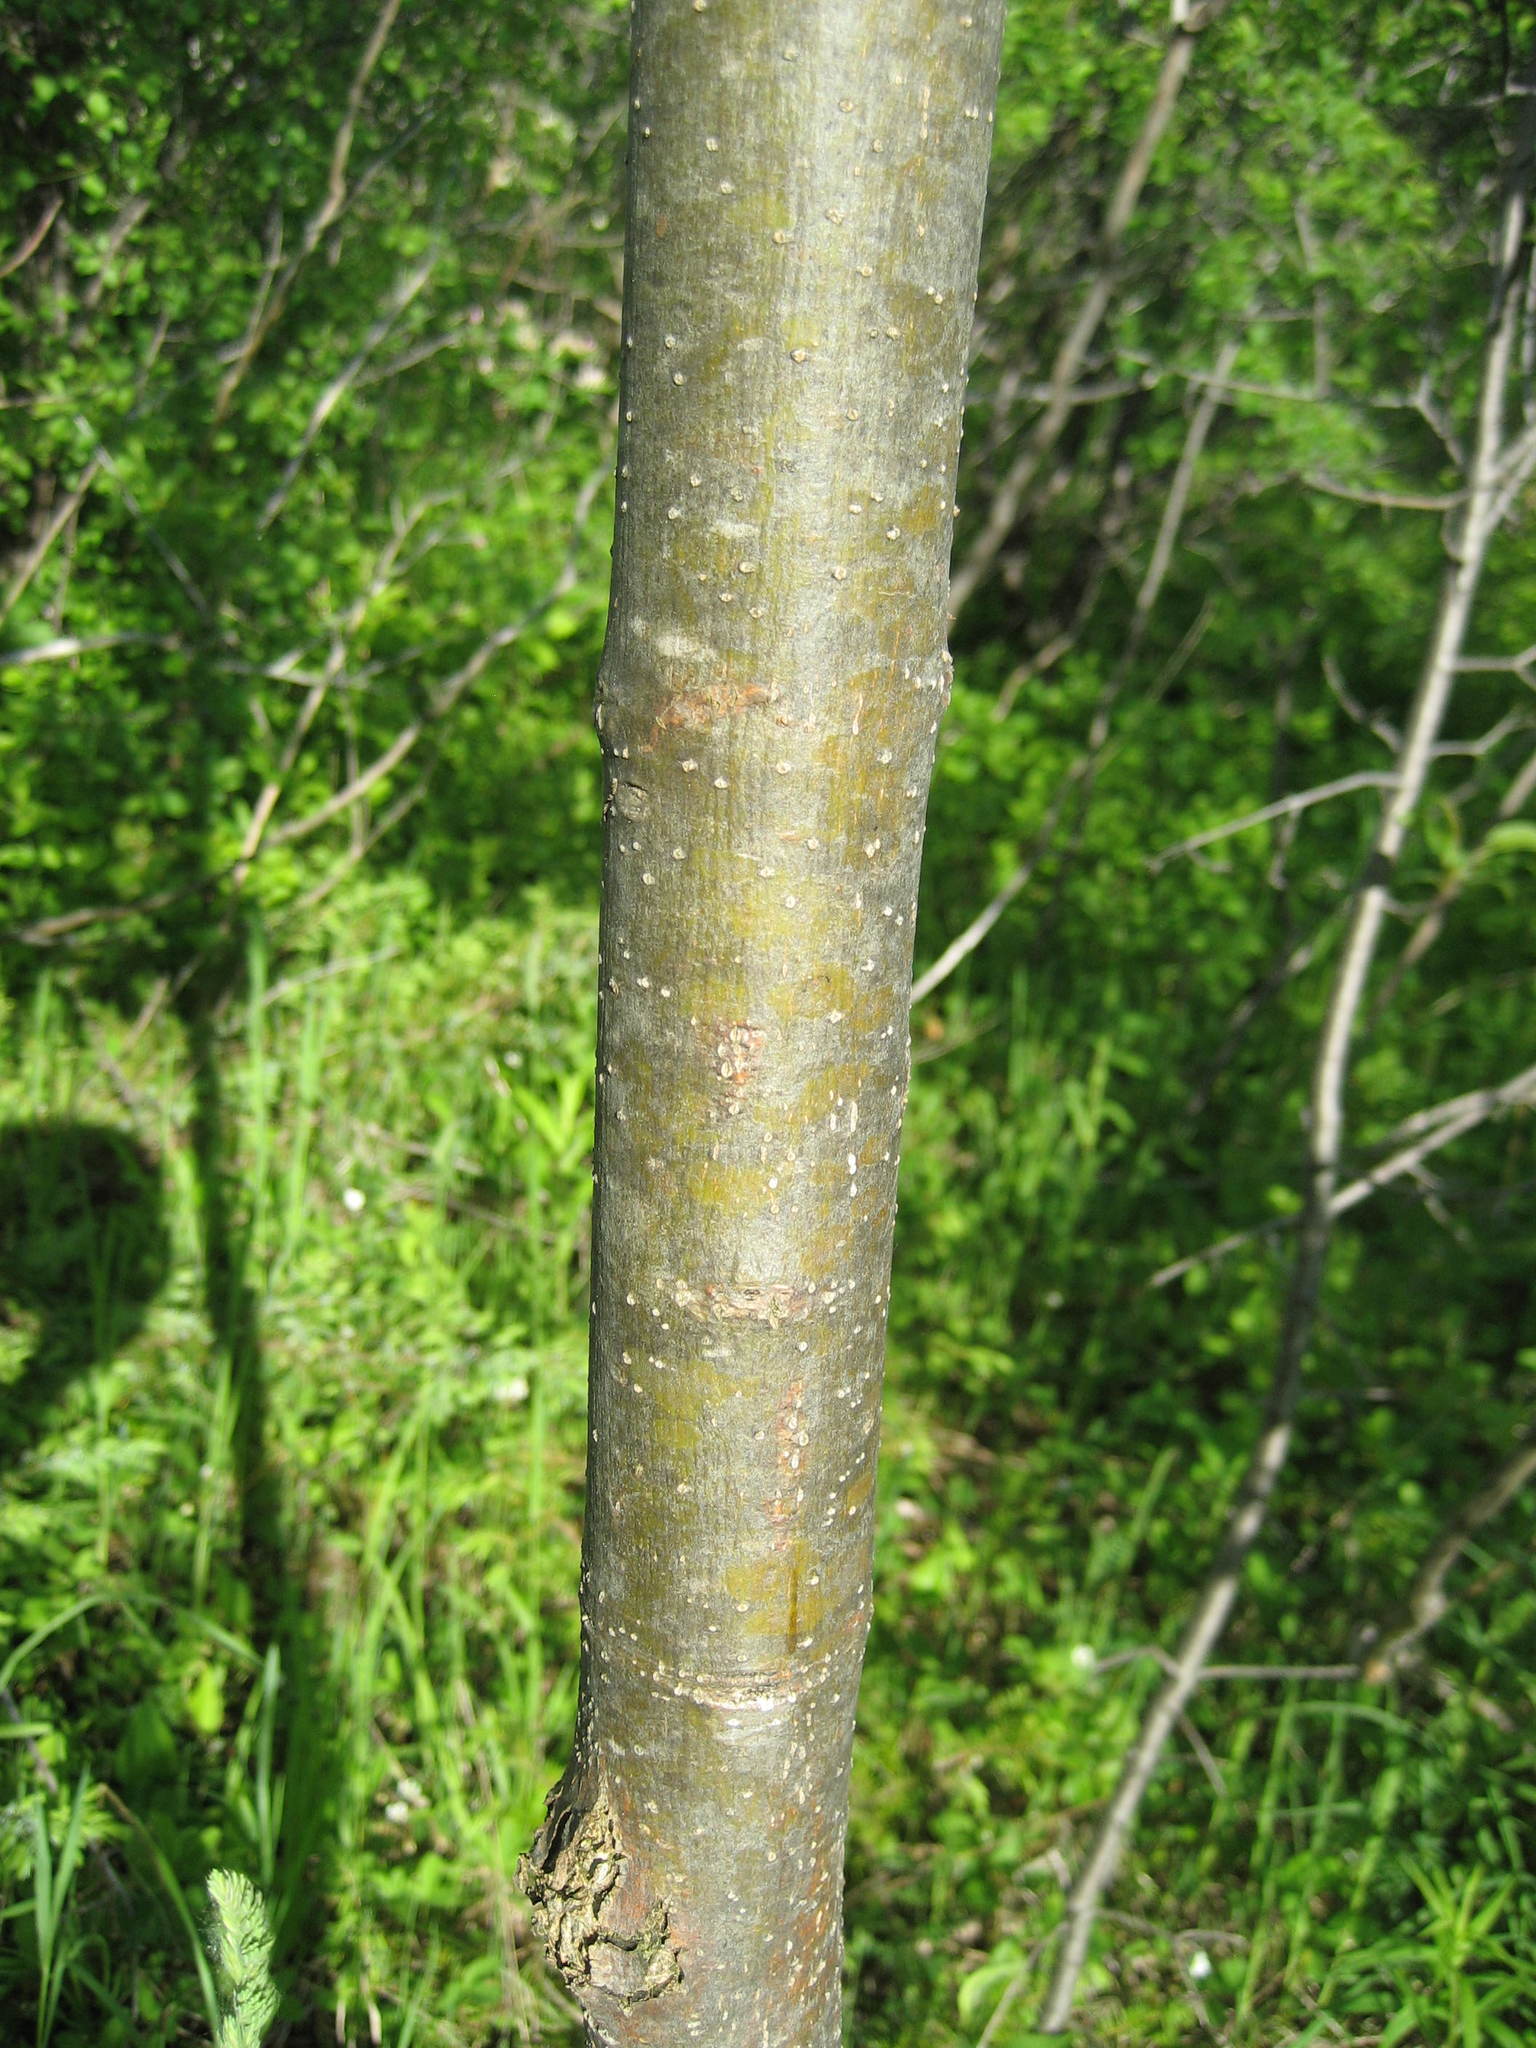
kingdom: Plantae
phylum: Tracheophyta
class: Magnoliopsida
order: Lamiales
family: Oleaceae
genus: Fraxinus
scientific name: Fraxinus americana
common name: White ash
